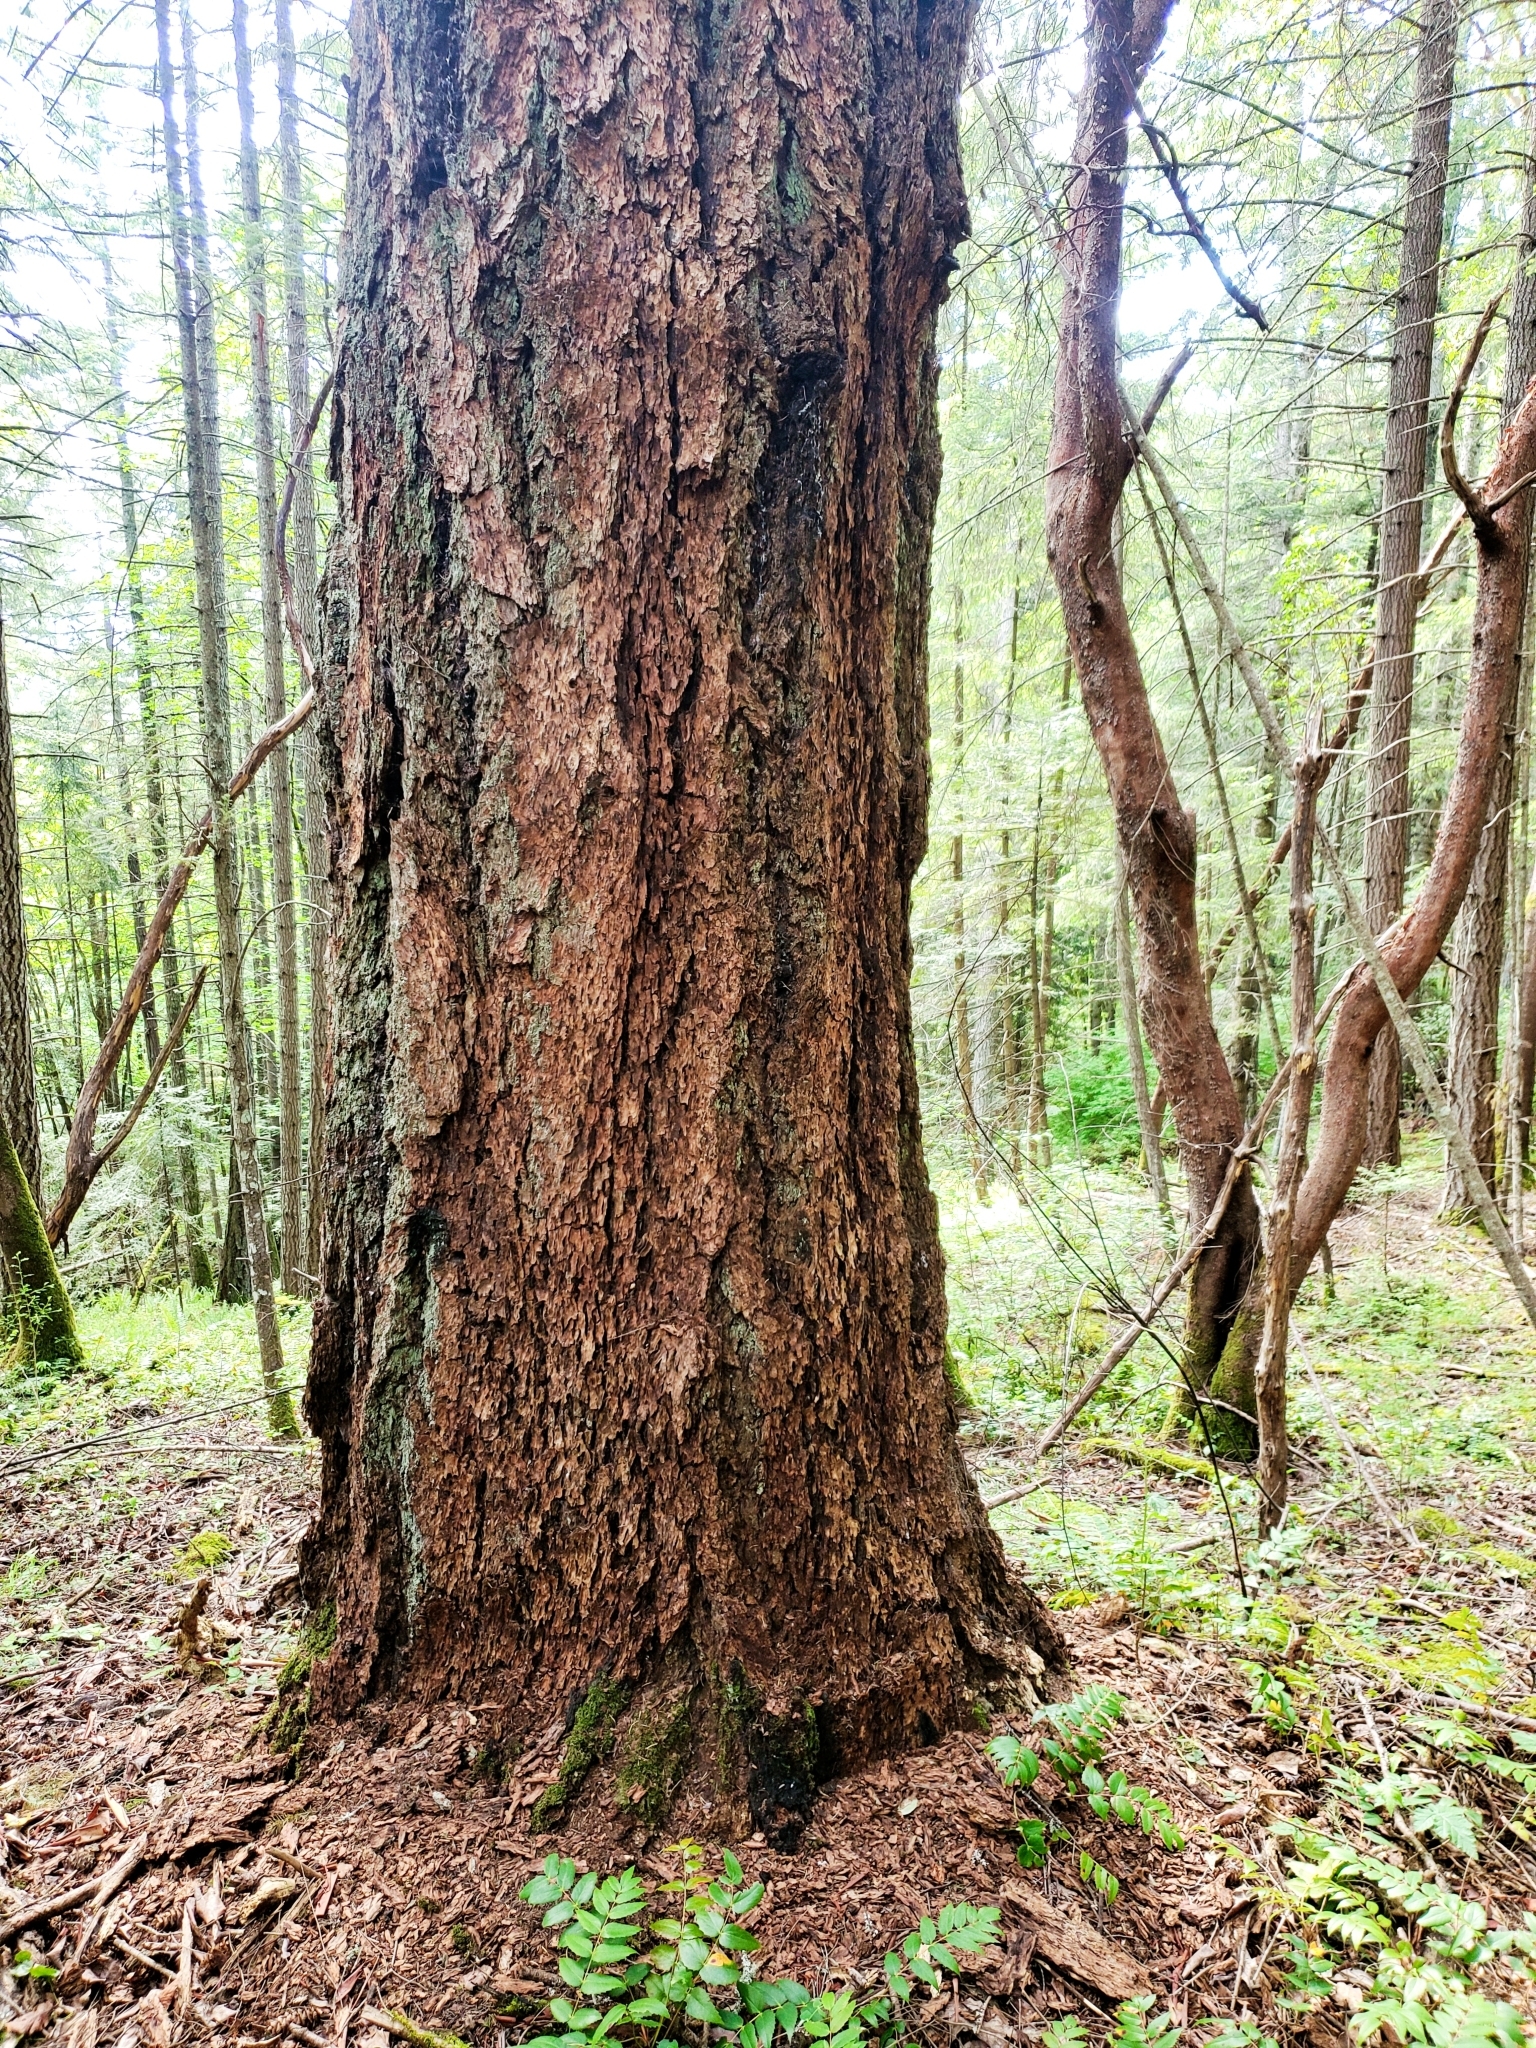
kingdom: Plantae
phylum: Tracheophyta
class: Pinopsida
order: Pinales
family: Pinaceae
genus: Pseudotsuga
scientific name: Pseudotsuga menziesii
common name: Douglas fir
